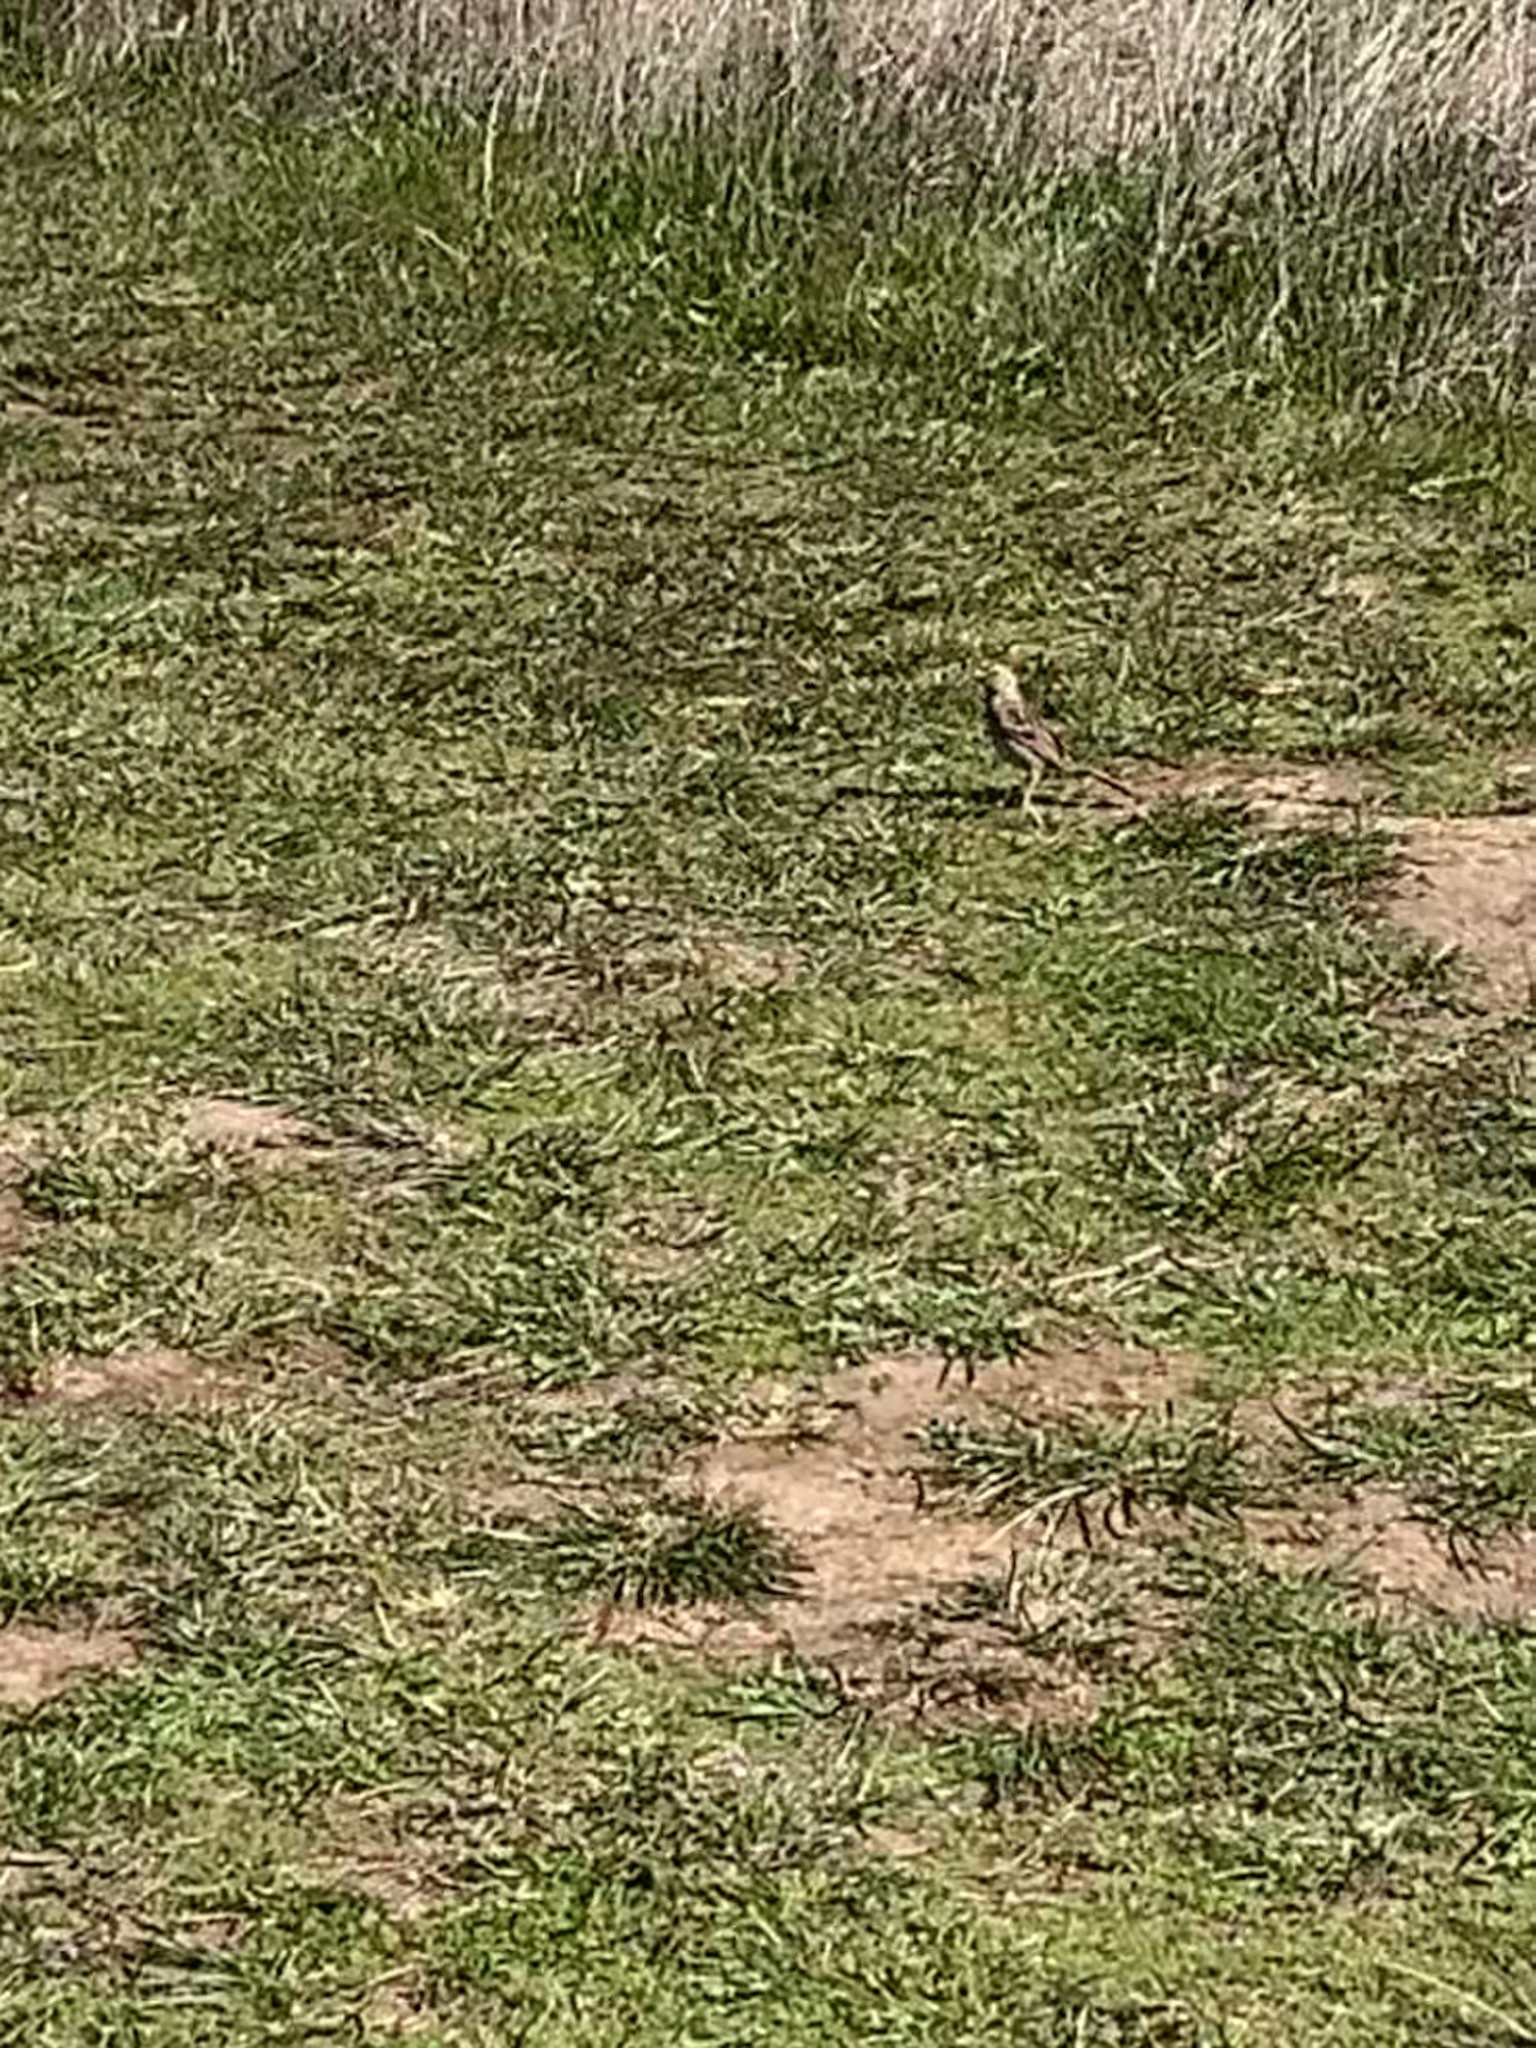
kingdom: Animalia
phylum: Chordata
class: Aves
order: Passeriformes
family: Passerellidae
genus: Zonotrichia
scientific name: Zonotrichia leucophrys
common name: White-crowned sparrow
